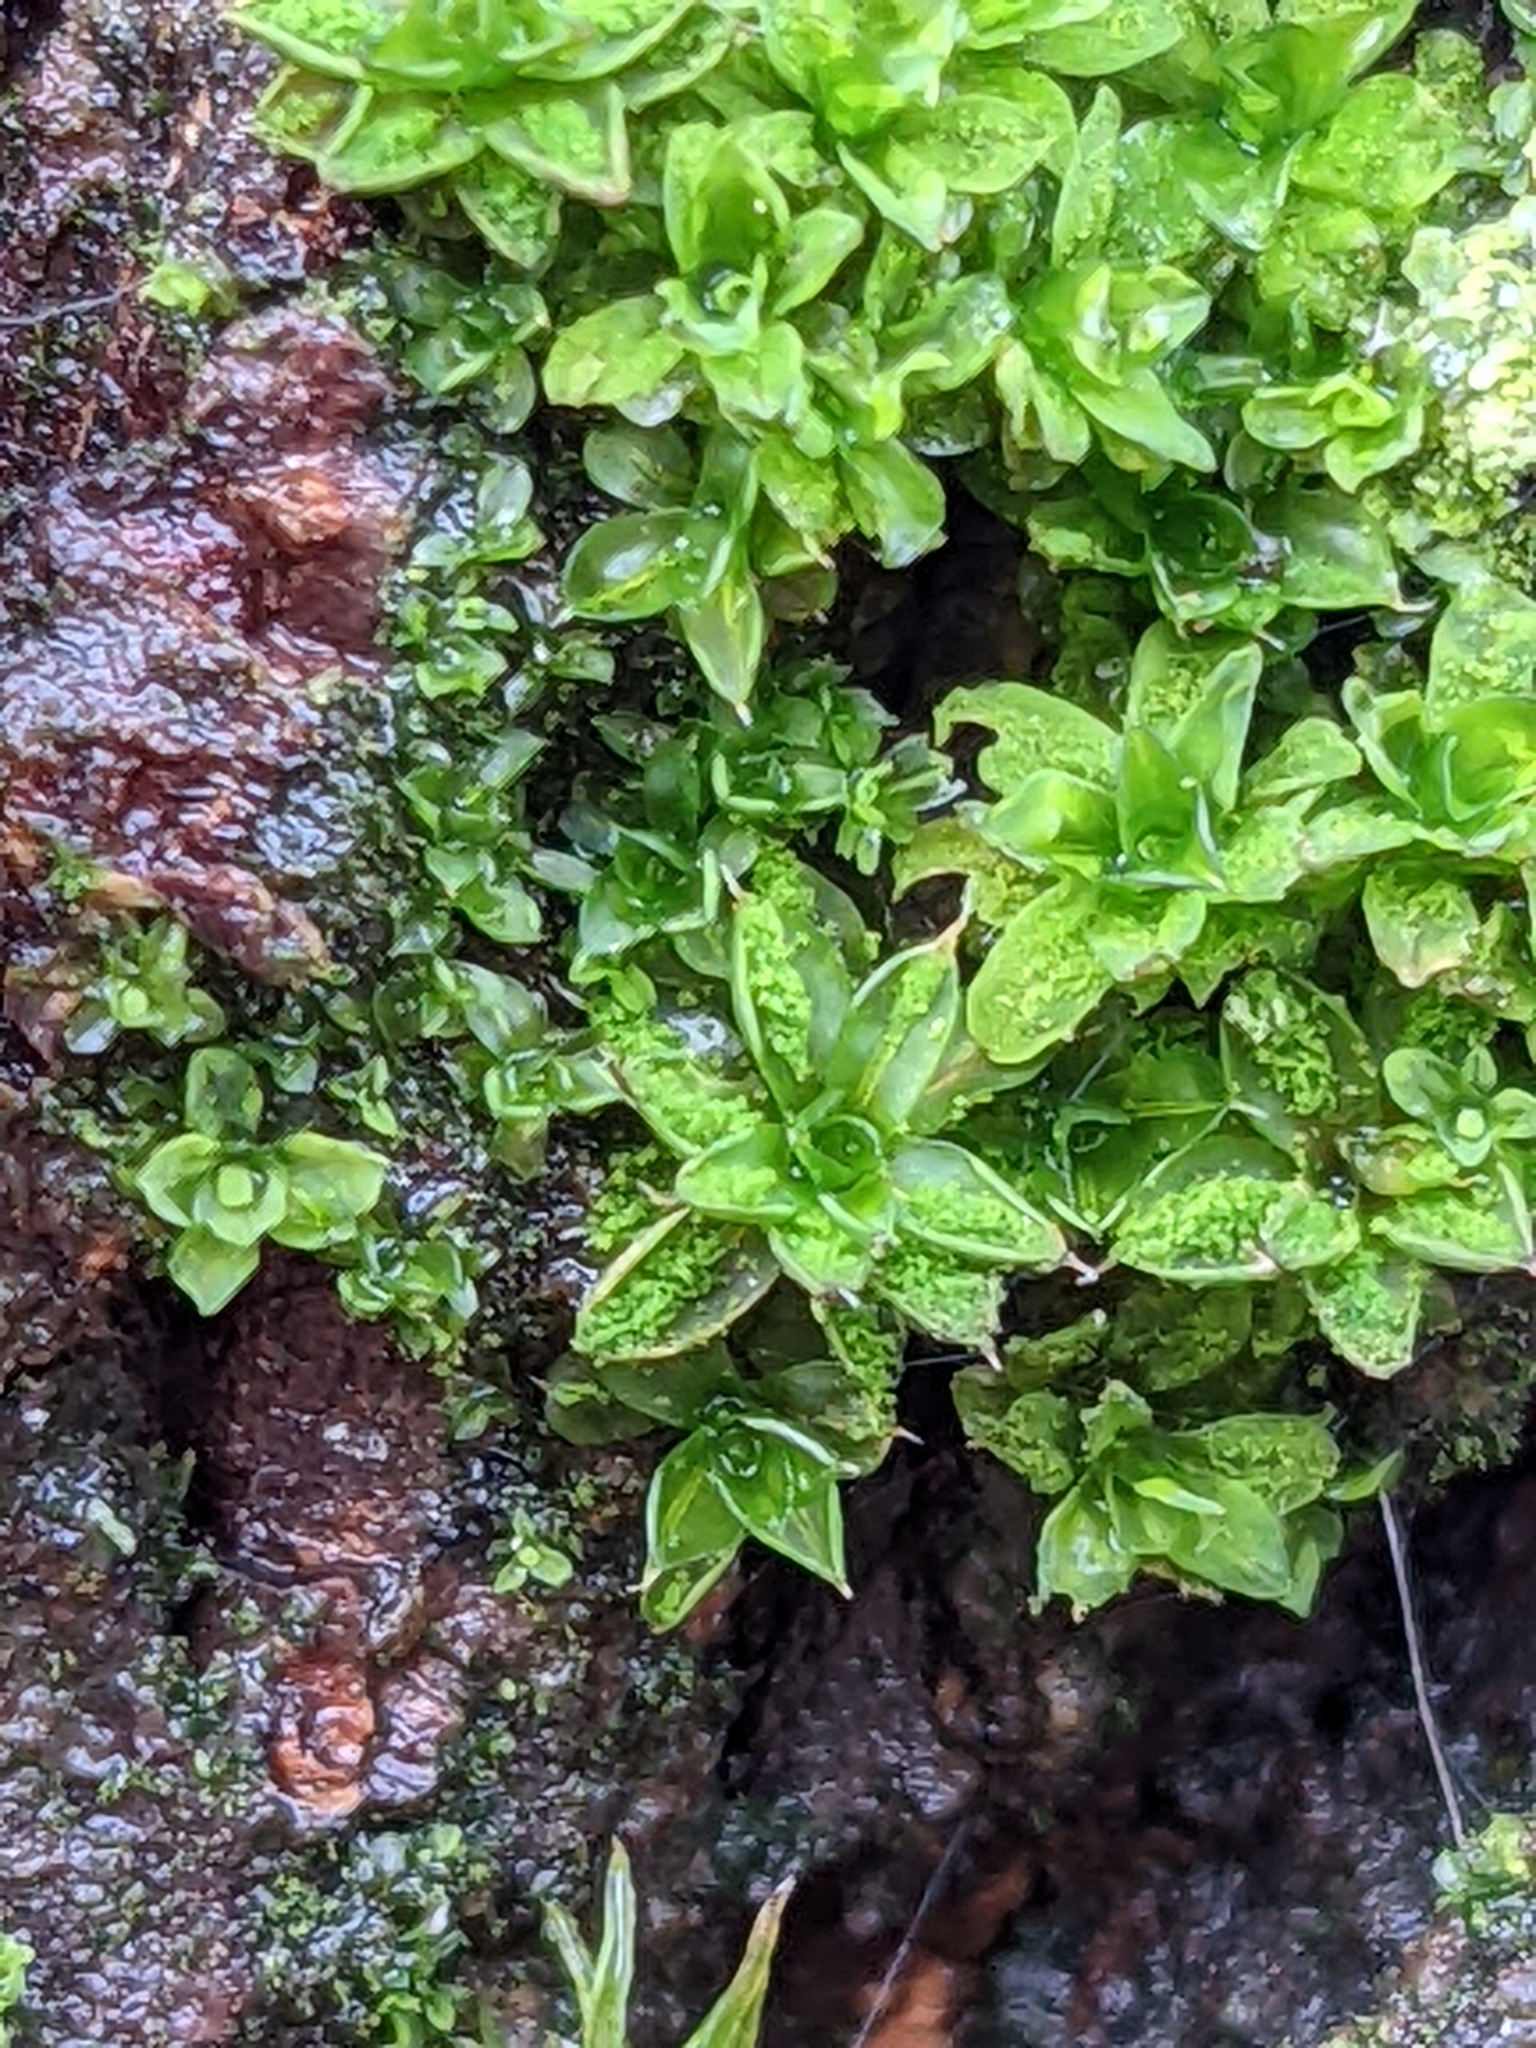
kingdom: Plantae
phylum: Bryophyta
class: Bryopsida
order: Pottiales
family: Pottiaceae
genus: Syntrichia
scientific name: Syntrichia papillosa
